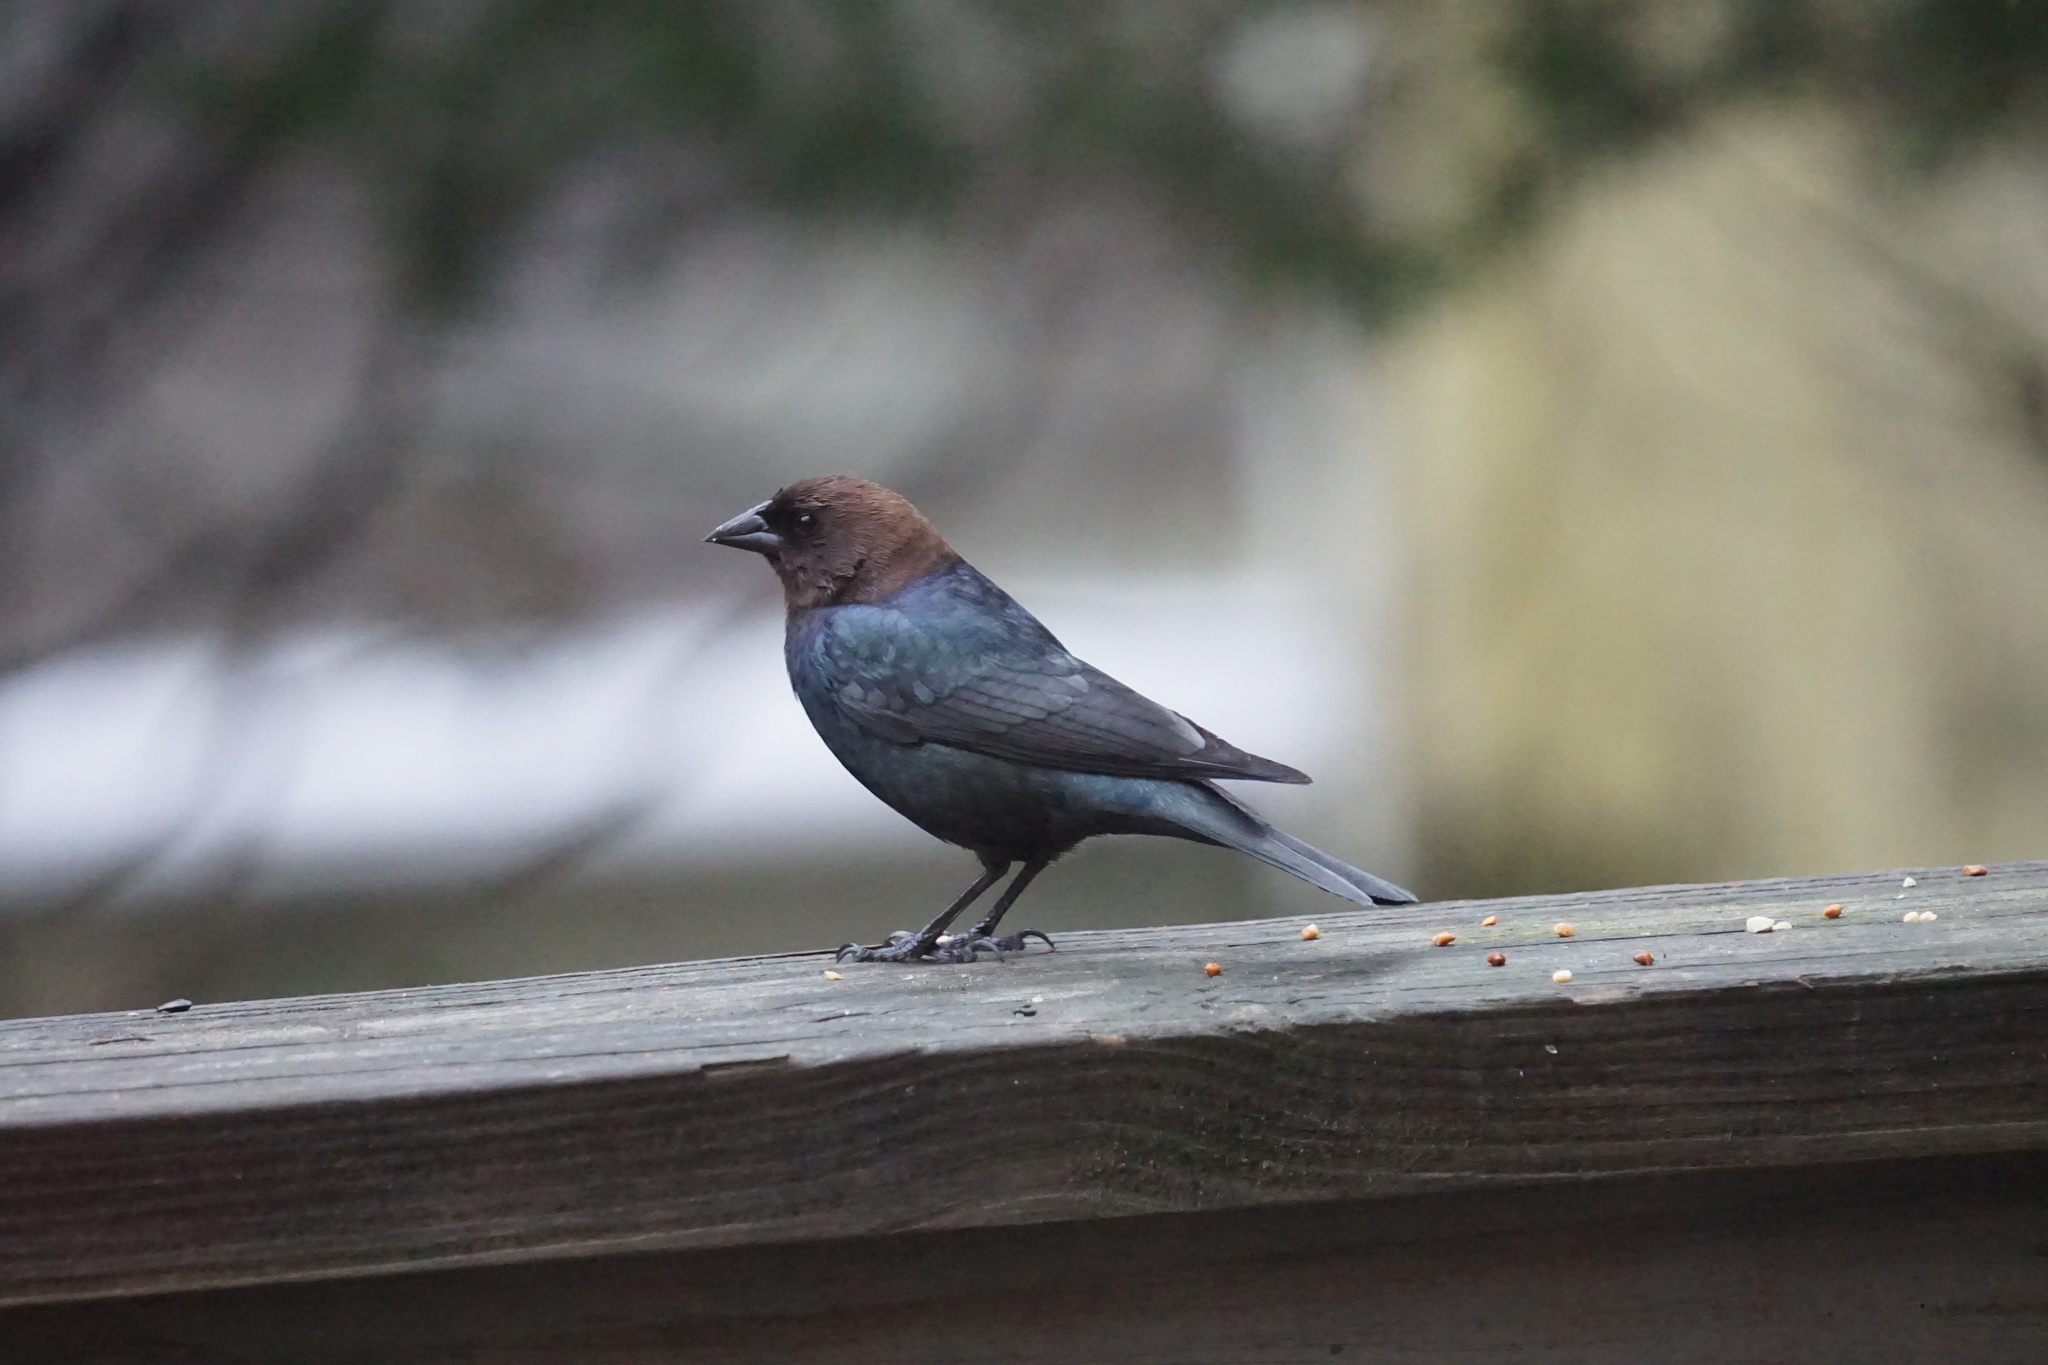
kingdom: Animalia
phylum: Chordata
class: Aves
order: Passeriformes
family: Icteridae
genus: Molothrus
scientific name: Molothrus ater
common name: Brown-headed cowbird
